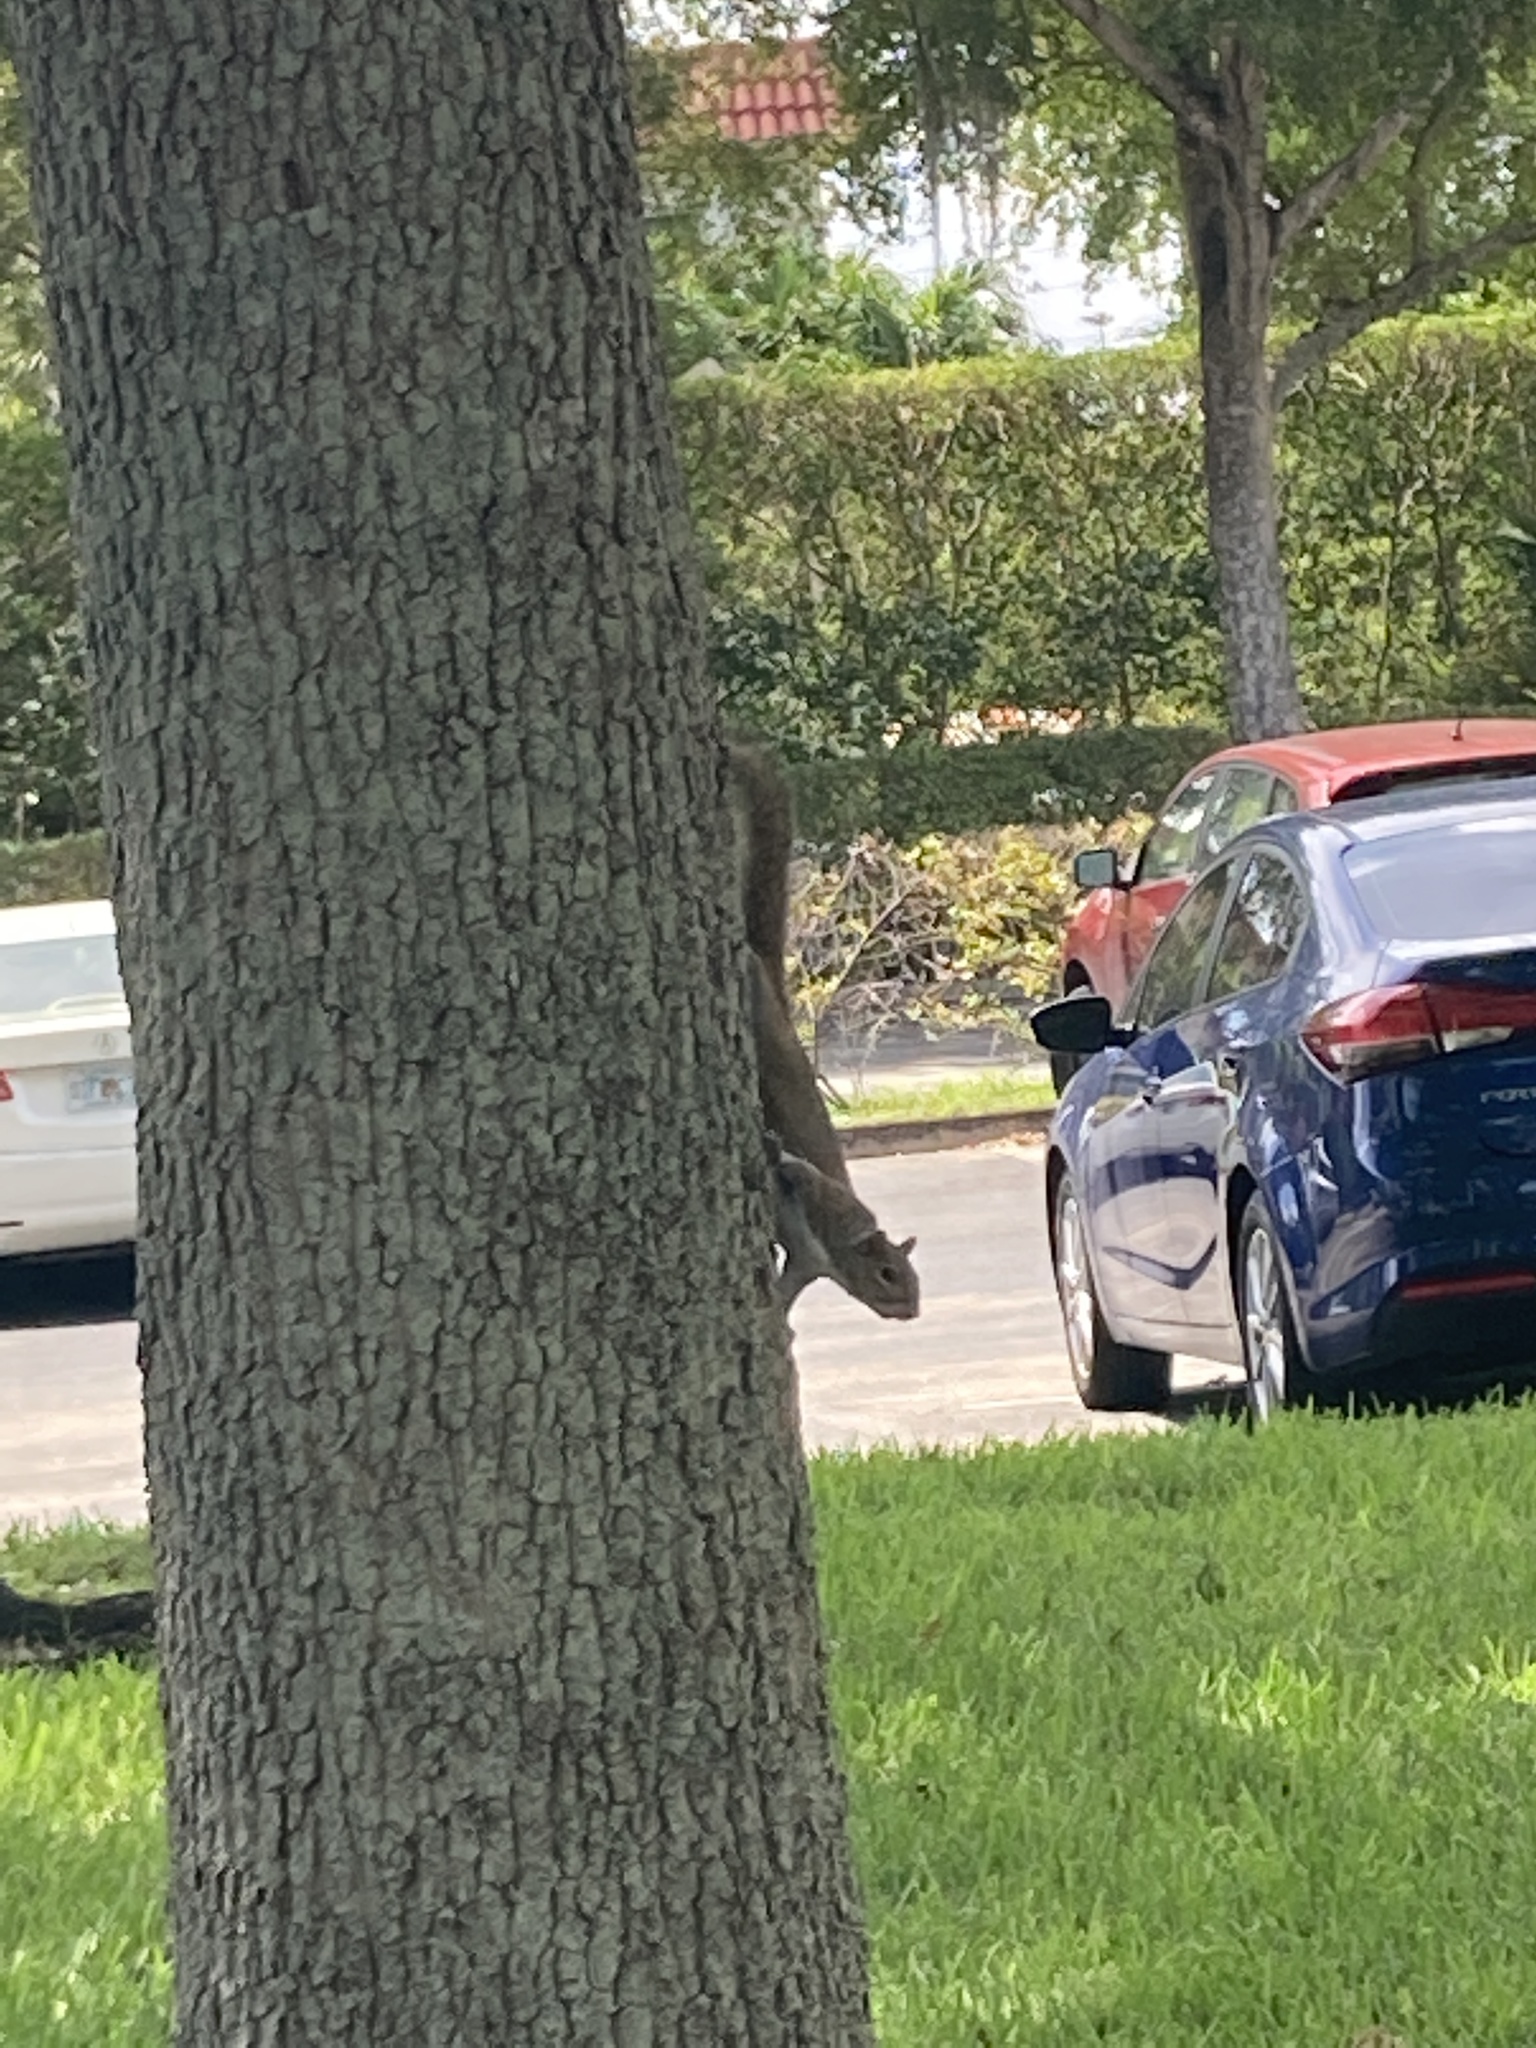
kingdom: Animalia
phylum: Chordata
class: Mammalia
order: Rodentia
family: Sciuridae
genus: Sciurus
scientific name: Sciurus carolinensis
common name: Eastern gray squirrel
